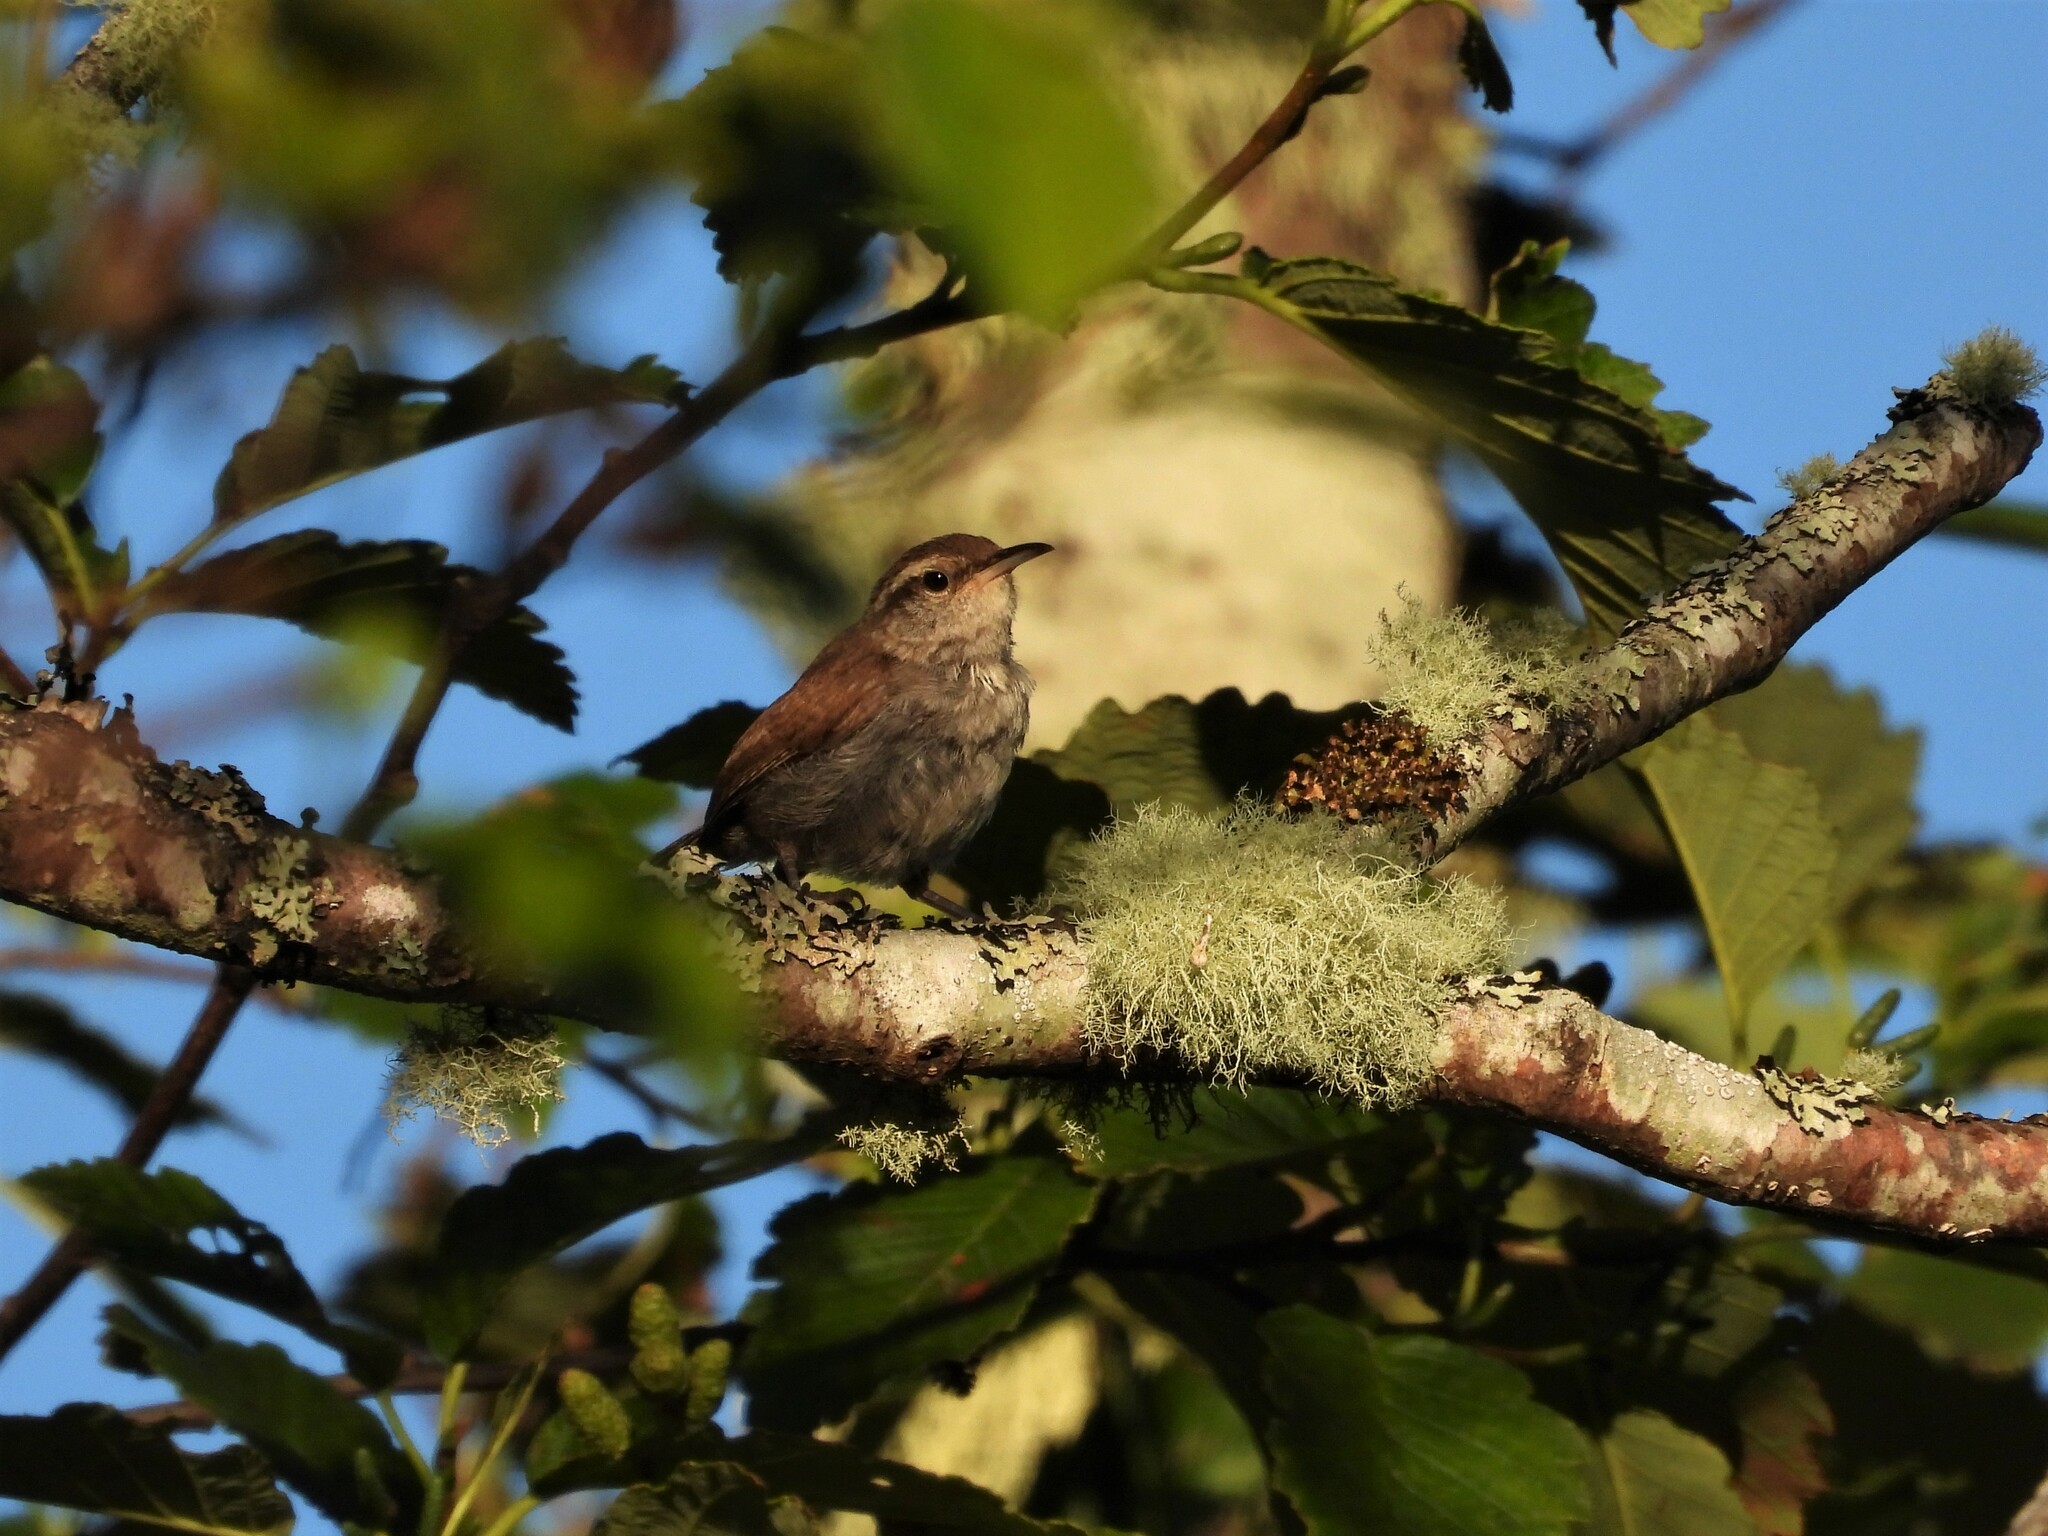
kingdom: Animalia
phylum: Chordata
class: Aves
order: Passeriformes
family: Troglodytidae
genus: Thryomanes
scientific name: Thryomanes bewickii
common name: Bewick's wren
